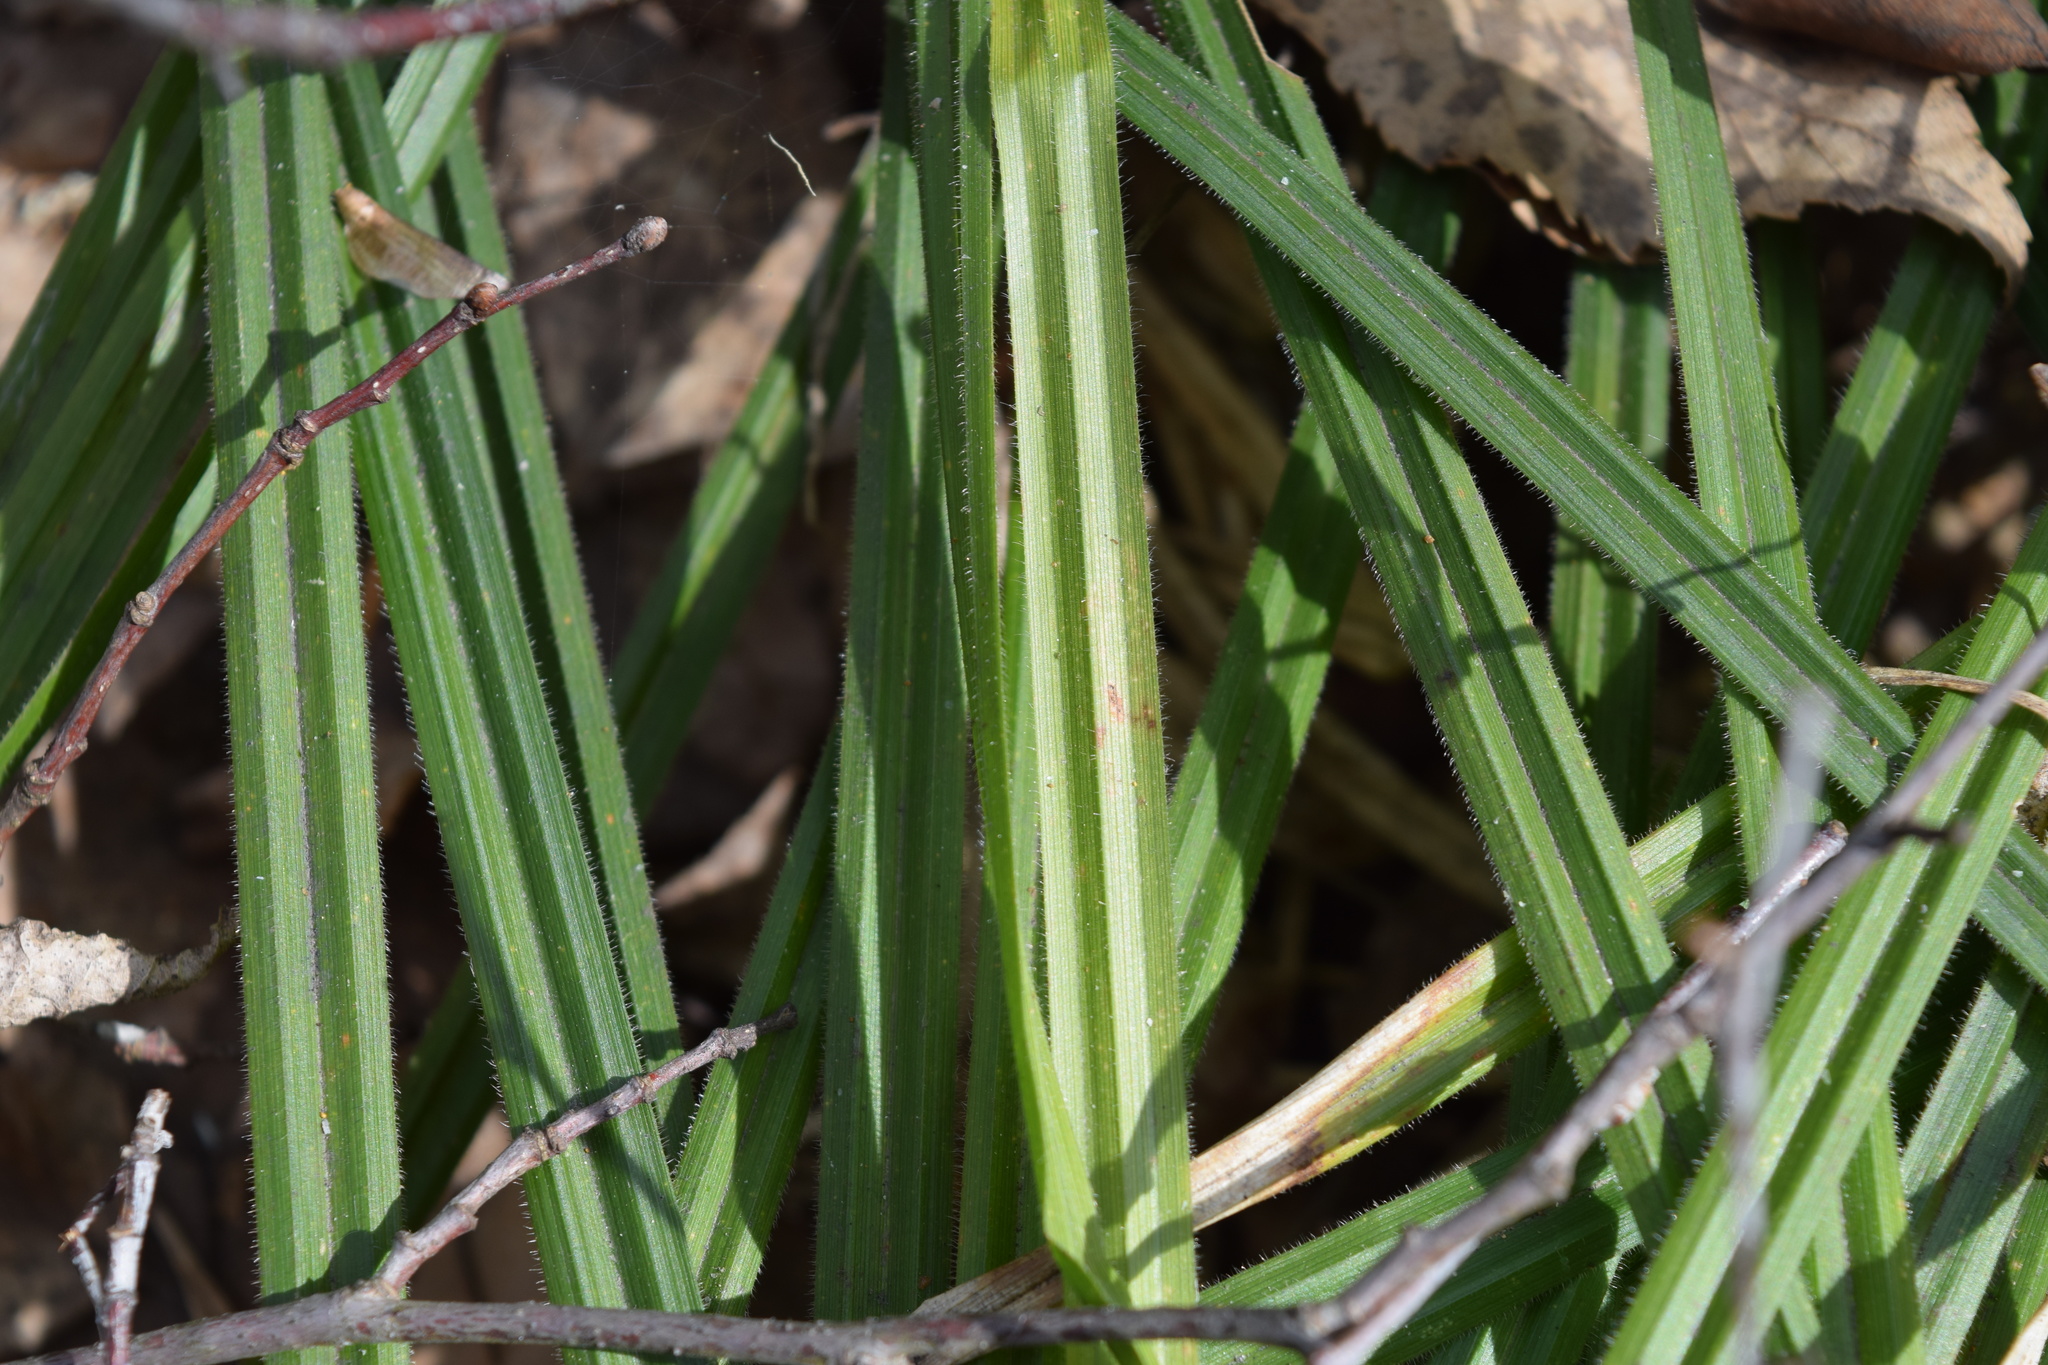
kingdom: Plantae
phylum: Tracheophyta
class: Liliopsida
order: Poales
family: Cyperaceae
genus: Carex
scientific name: Carex pilosa
